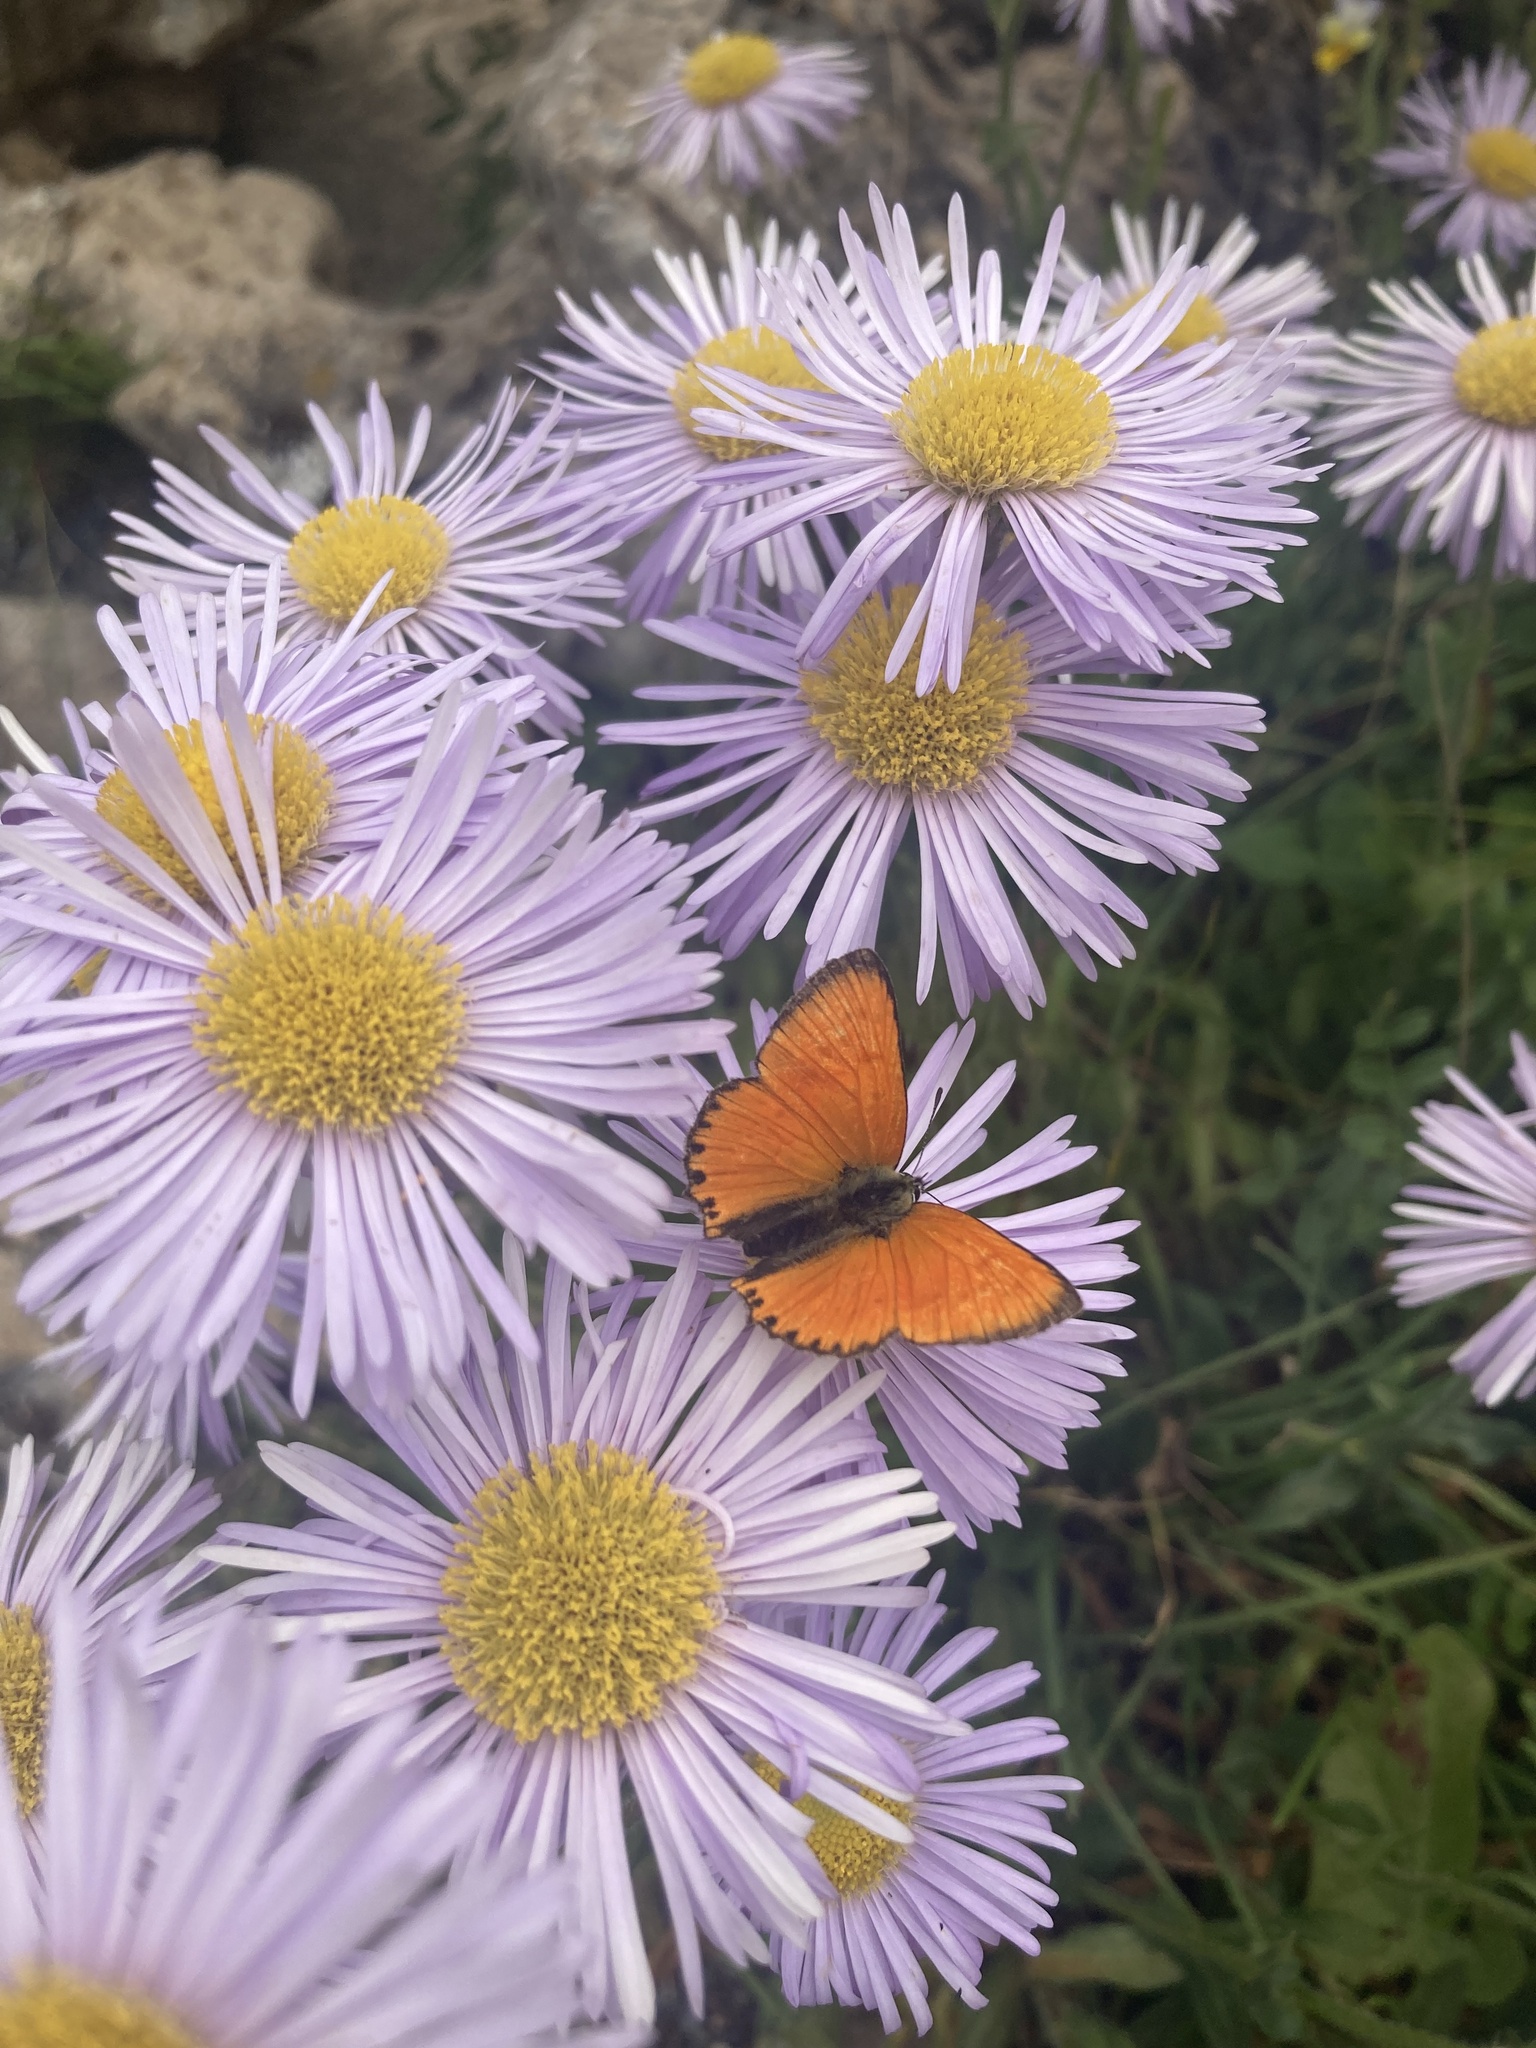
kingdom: Animalia
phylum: Arthropoda
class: Insecta
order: Lepidoptera
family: Lycaenidae
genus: Lycaena
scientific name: Lycaena virgaureae
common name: Scarce copper
